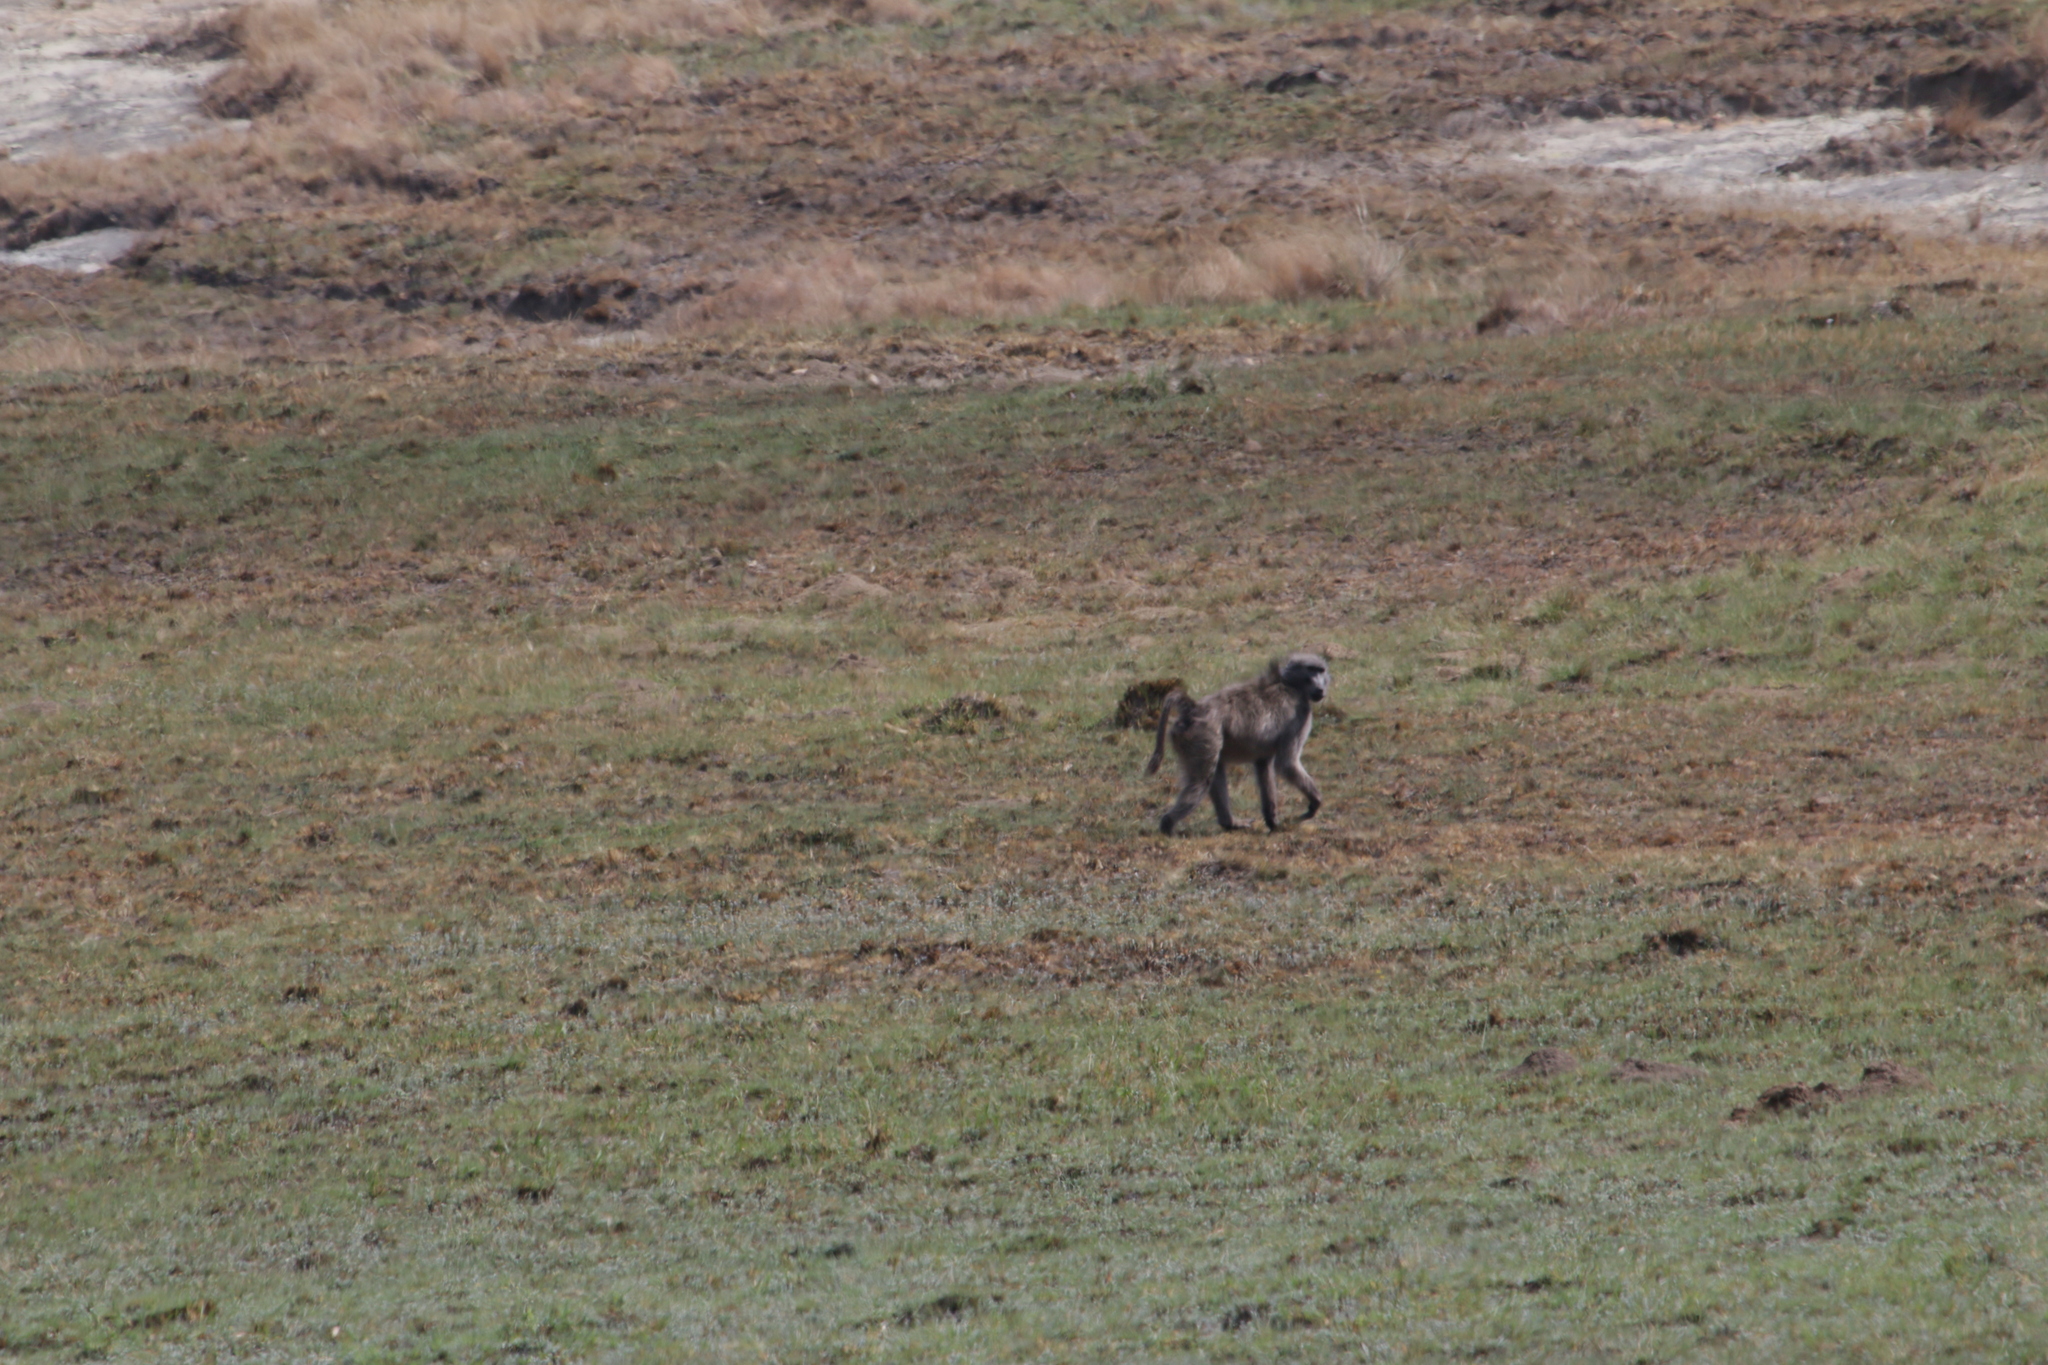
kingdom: Animalia
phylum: Chordata
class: Mammalia
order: Primates
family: Cercopithecidae
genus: Papio
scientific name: Papio ursinus
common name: Chacma baboon
